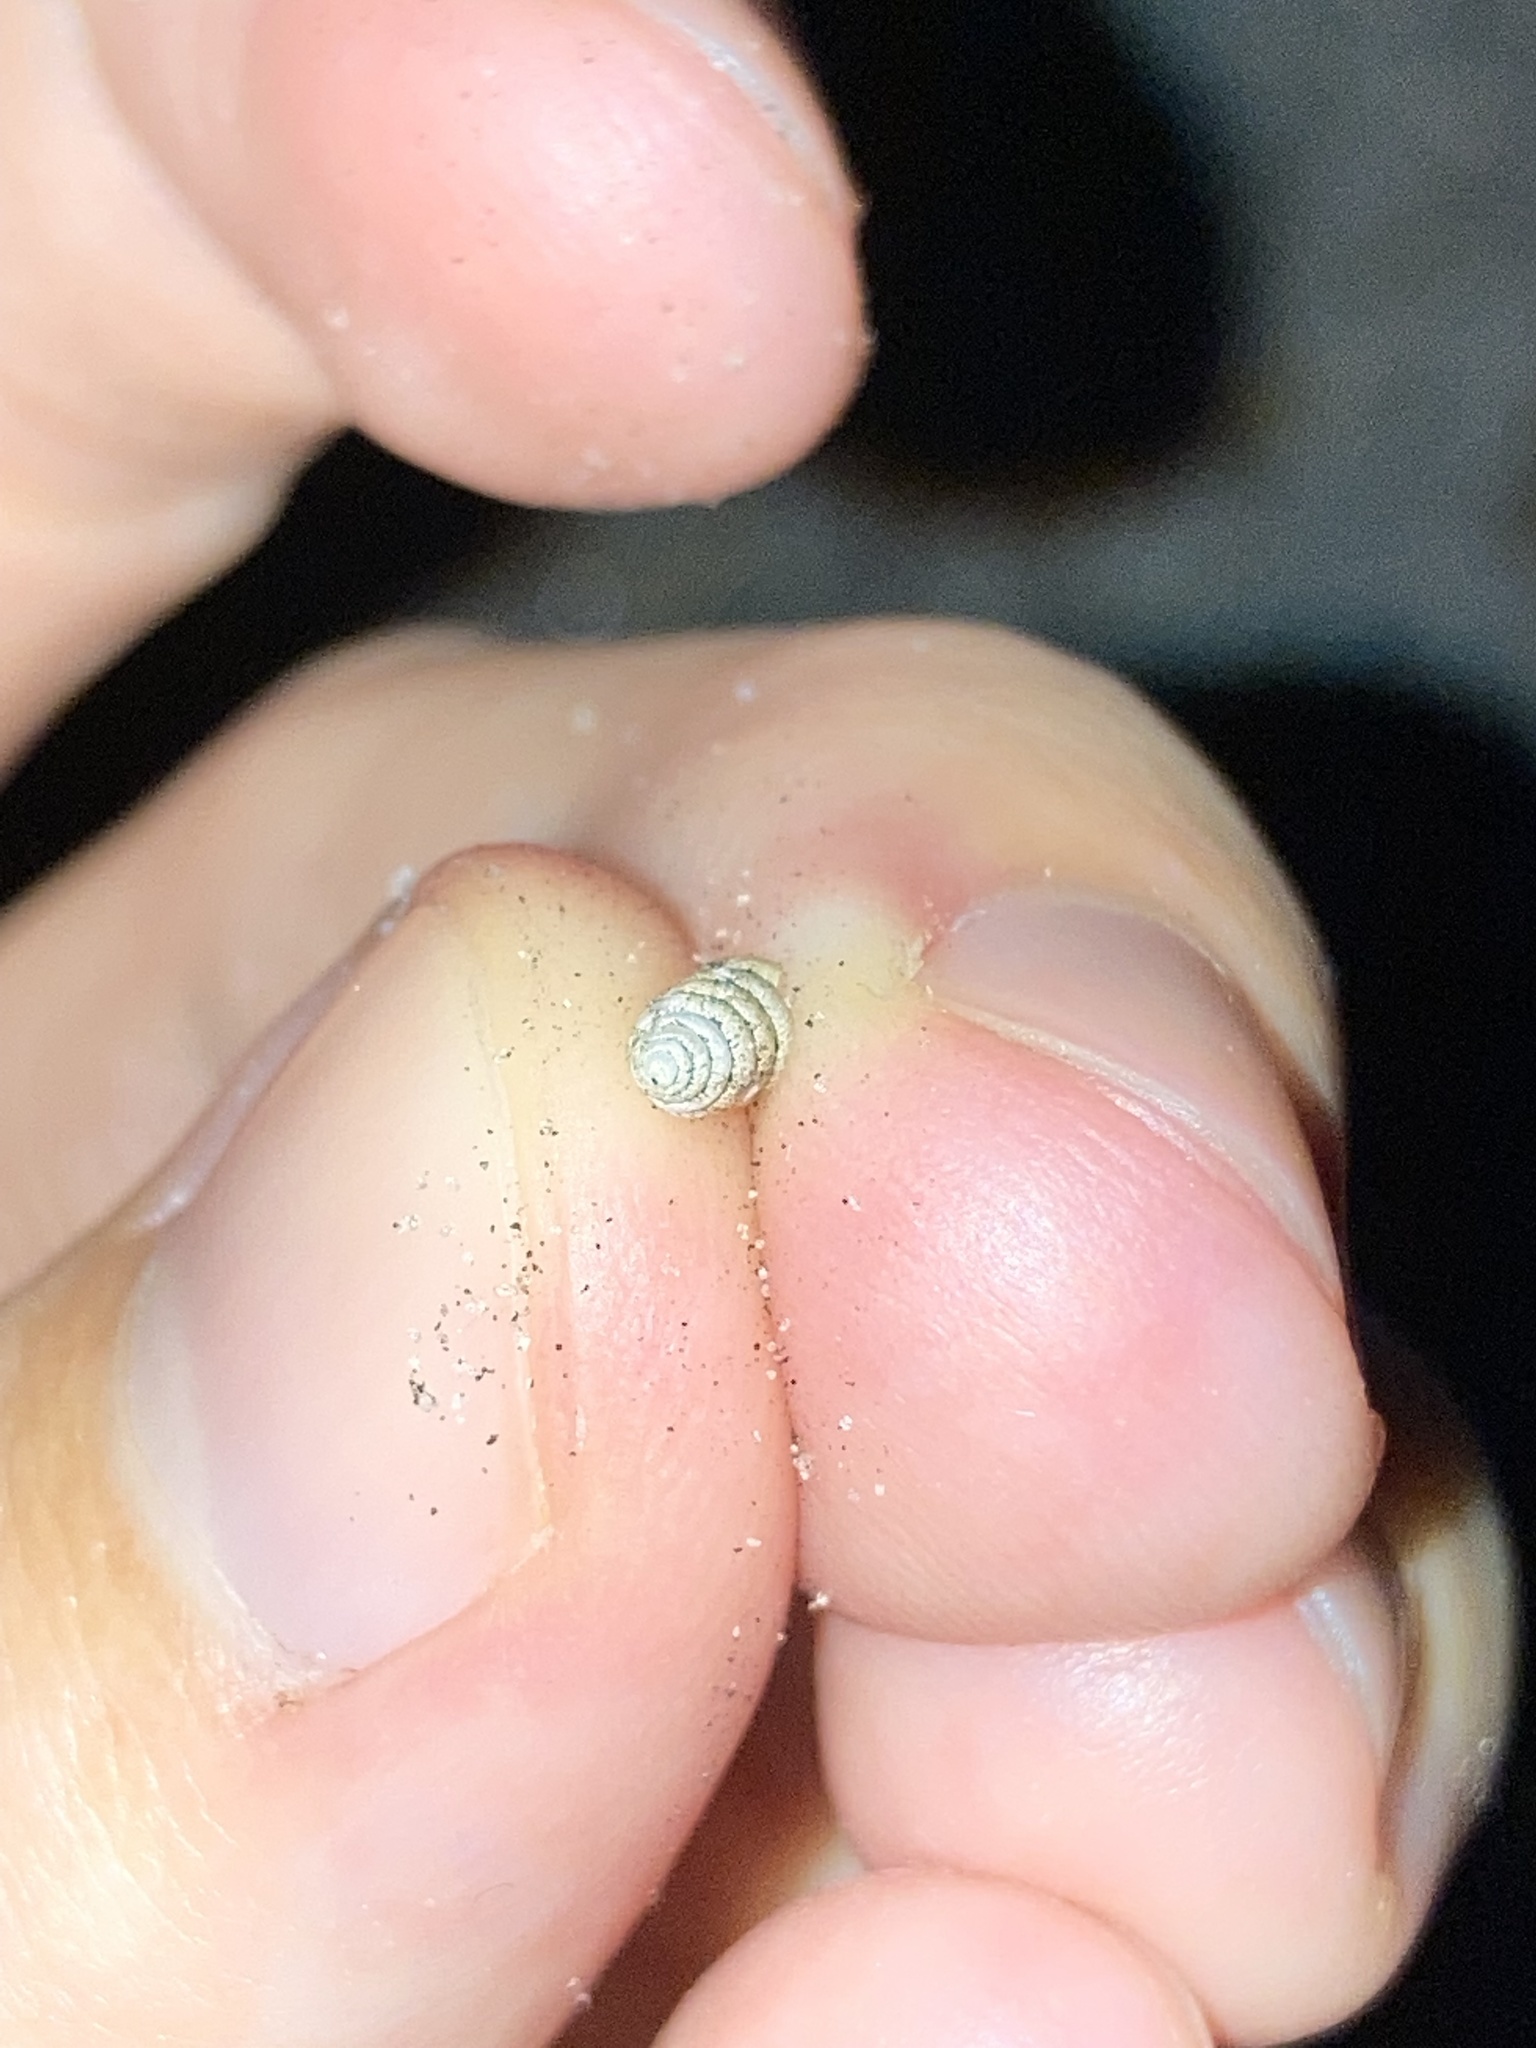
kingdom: Animalia
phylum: Mollusca
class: Gastropoda
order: Stylommatophora
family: Achatinidae
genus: Beckianum
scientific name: Beckianum beckianum
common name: Land snail
